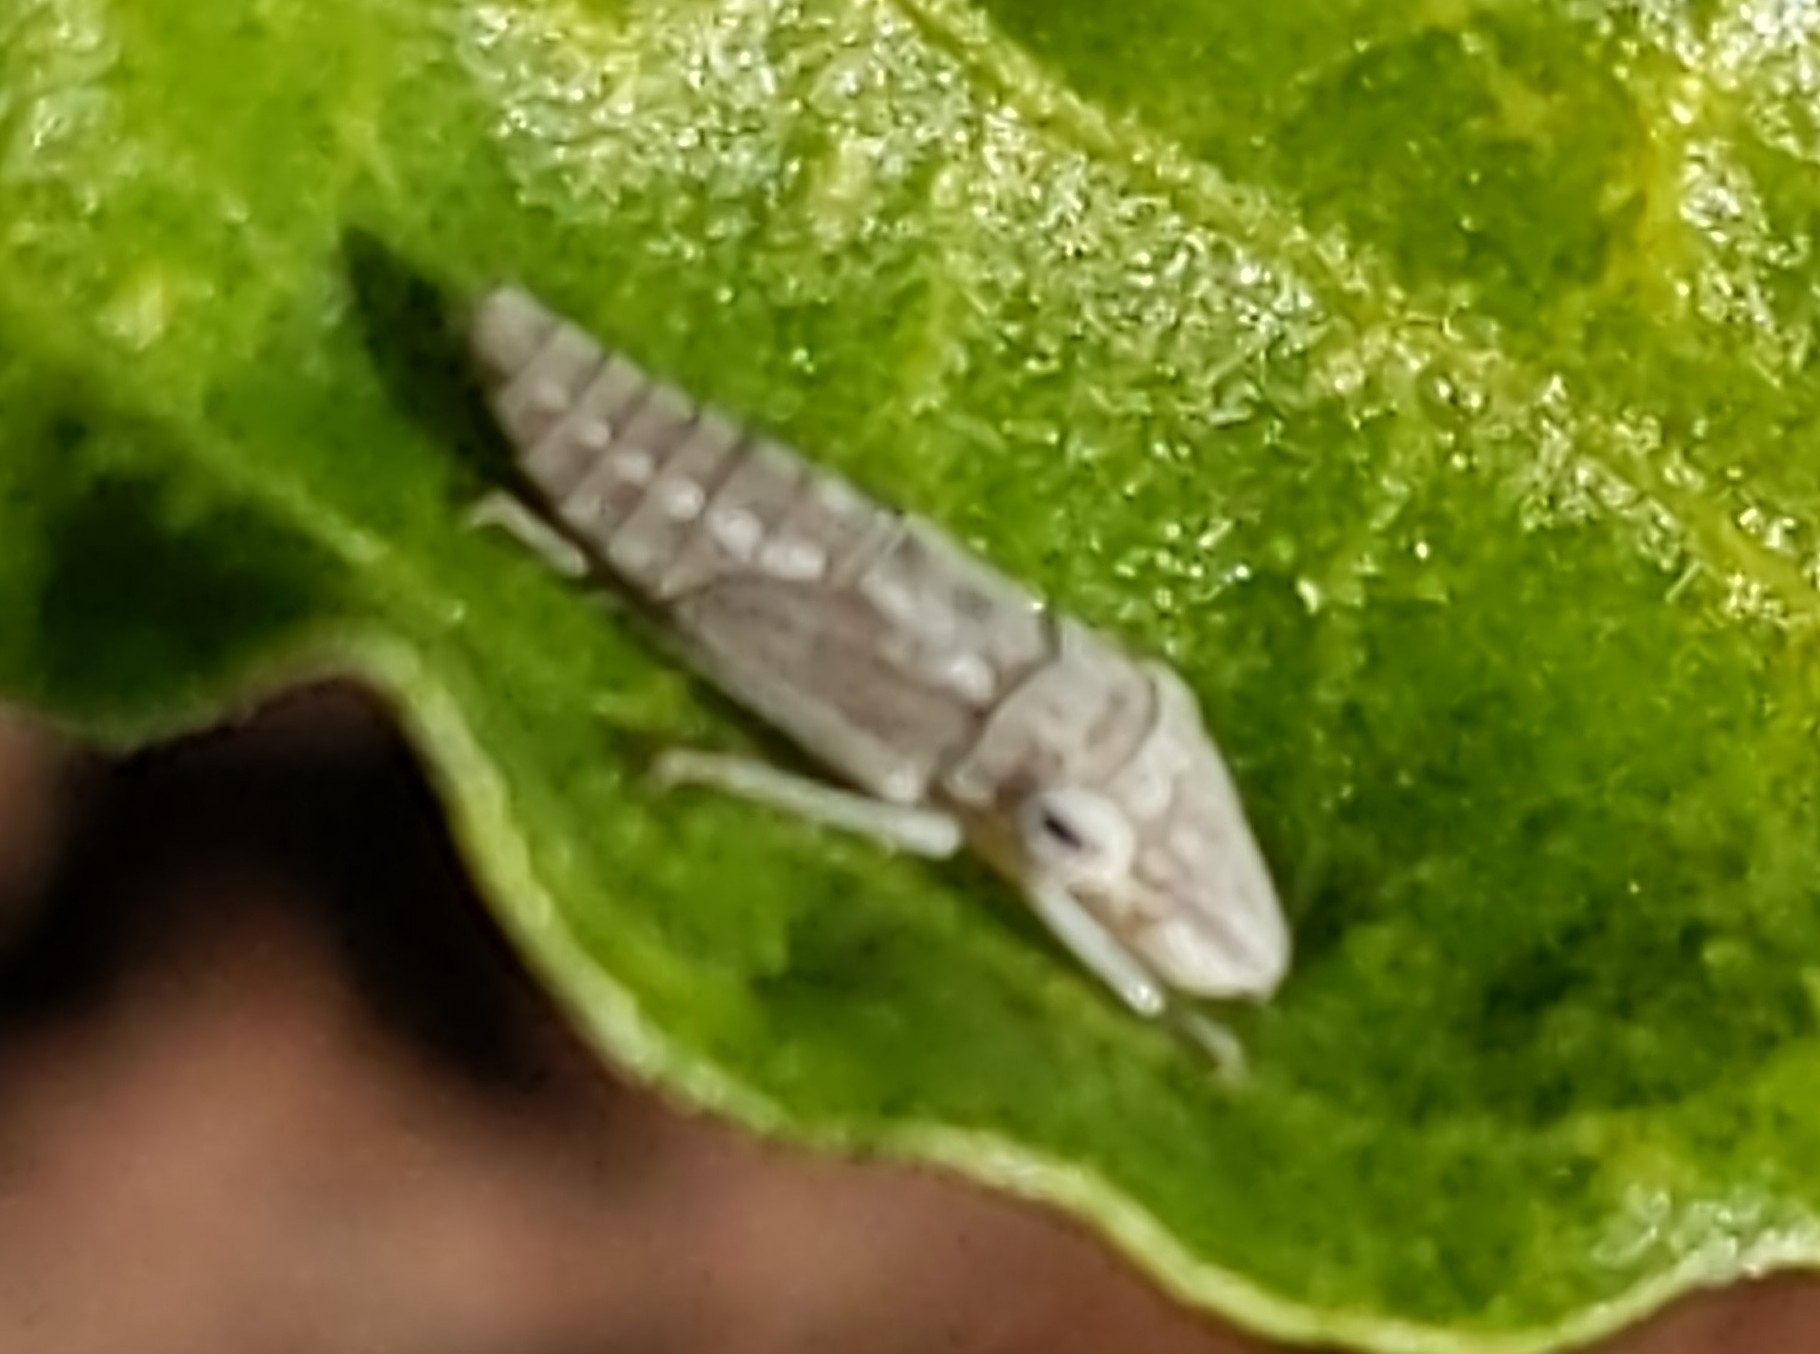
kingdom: Animalia
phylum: Arthropoda
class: Insecta
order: Hemiptera
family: Cicadellidae
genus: Homalodisca
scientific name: Homalodisca
